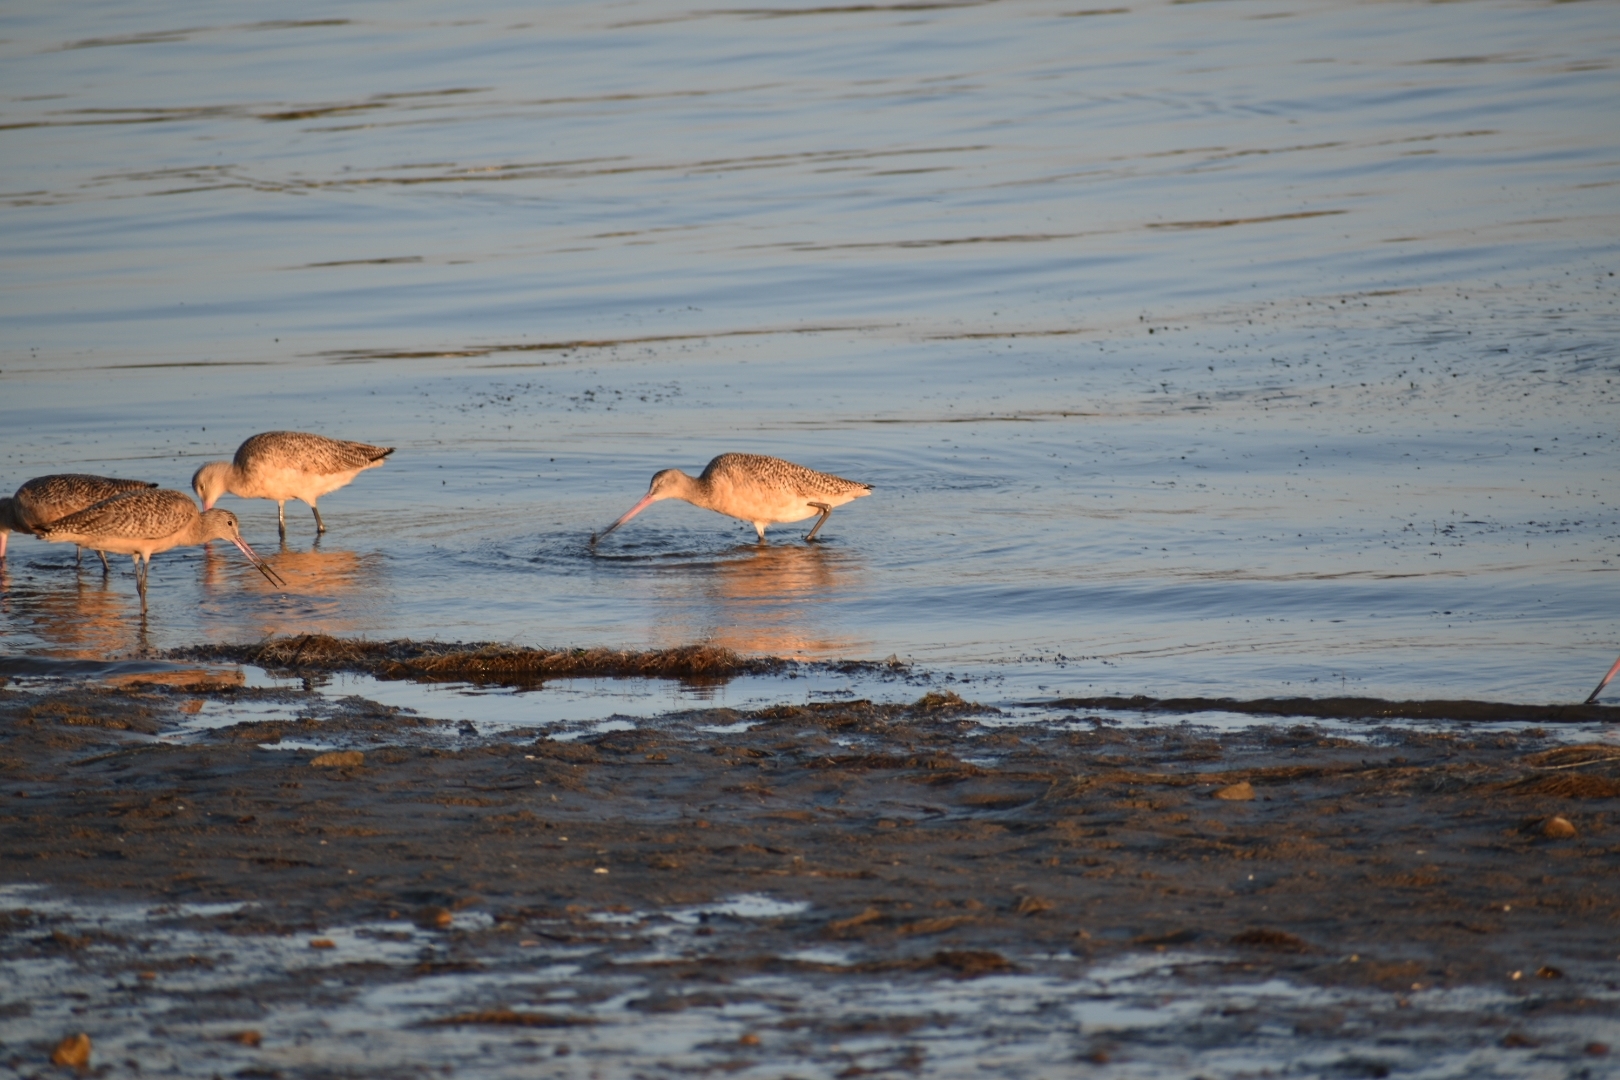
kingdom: Animalia
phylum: Chordata
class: Aves
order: Charadriiformes
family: Scolopacidae
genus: Limosa
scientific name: Limosa fedoa
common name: Marbled godwit
